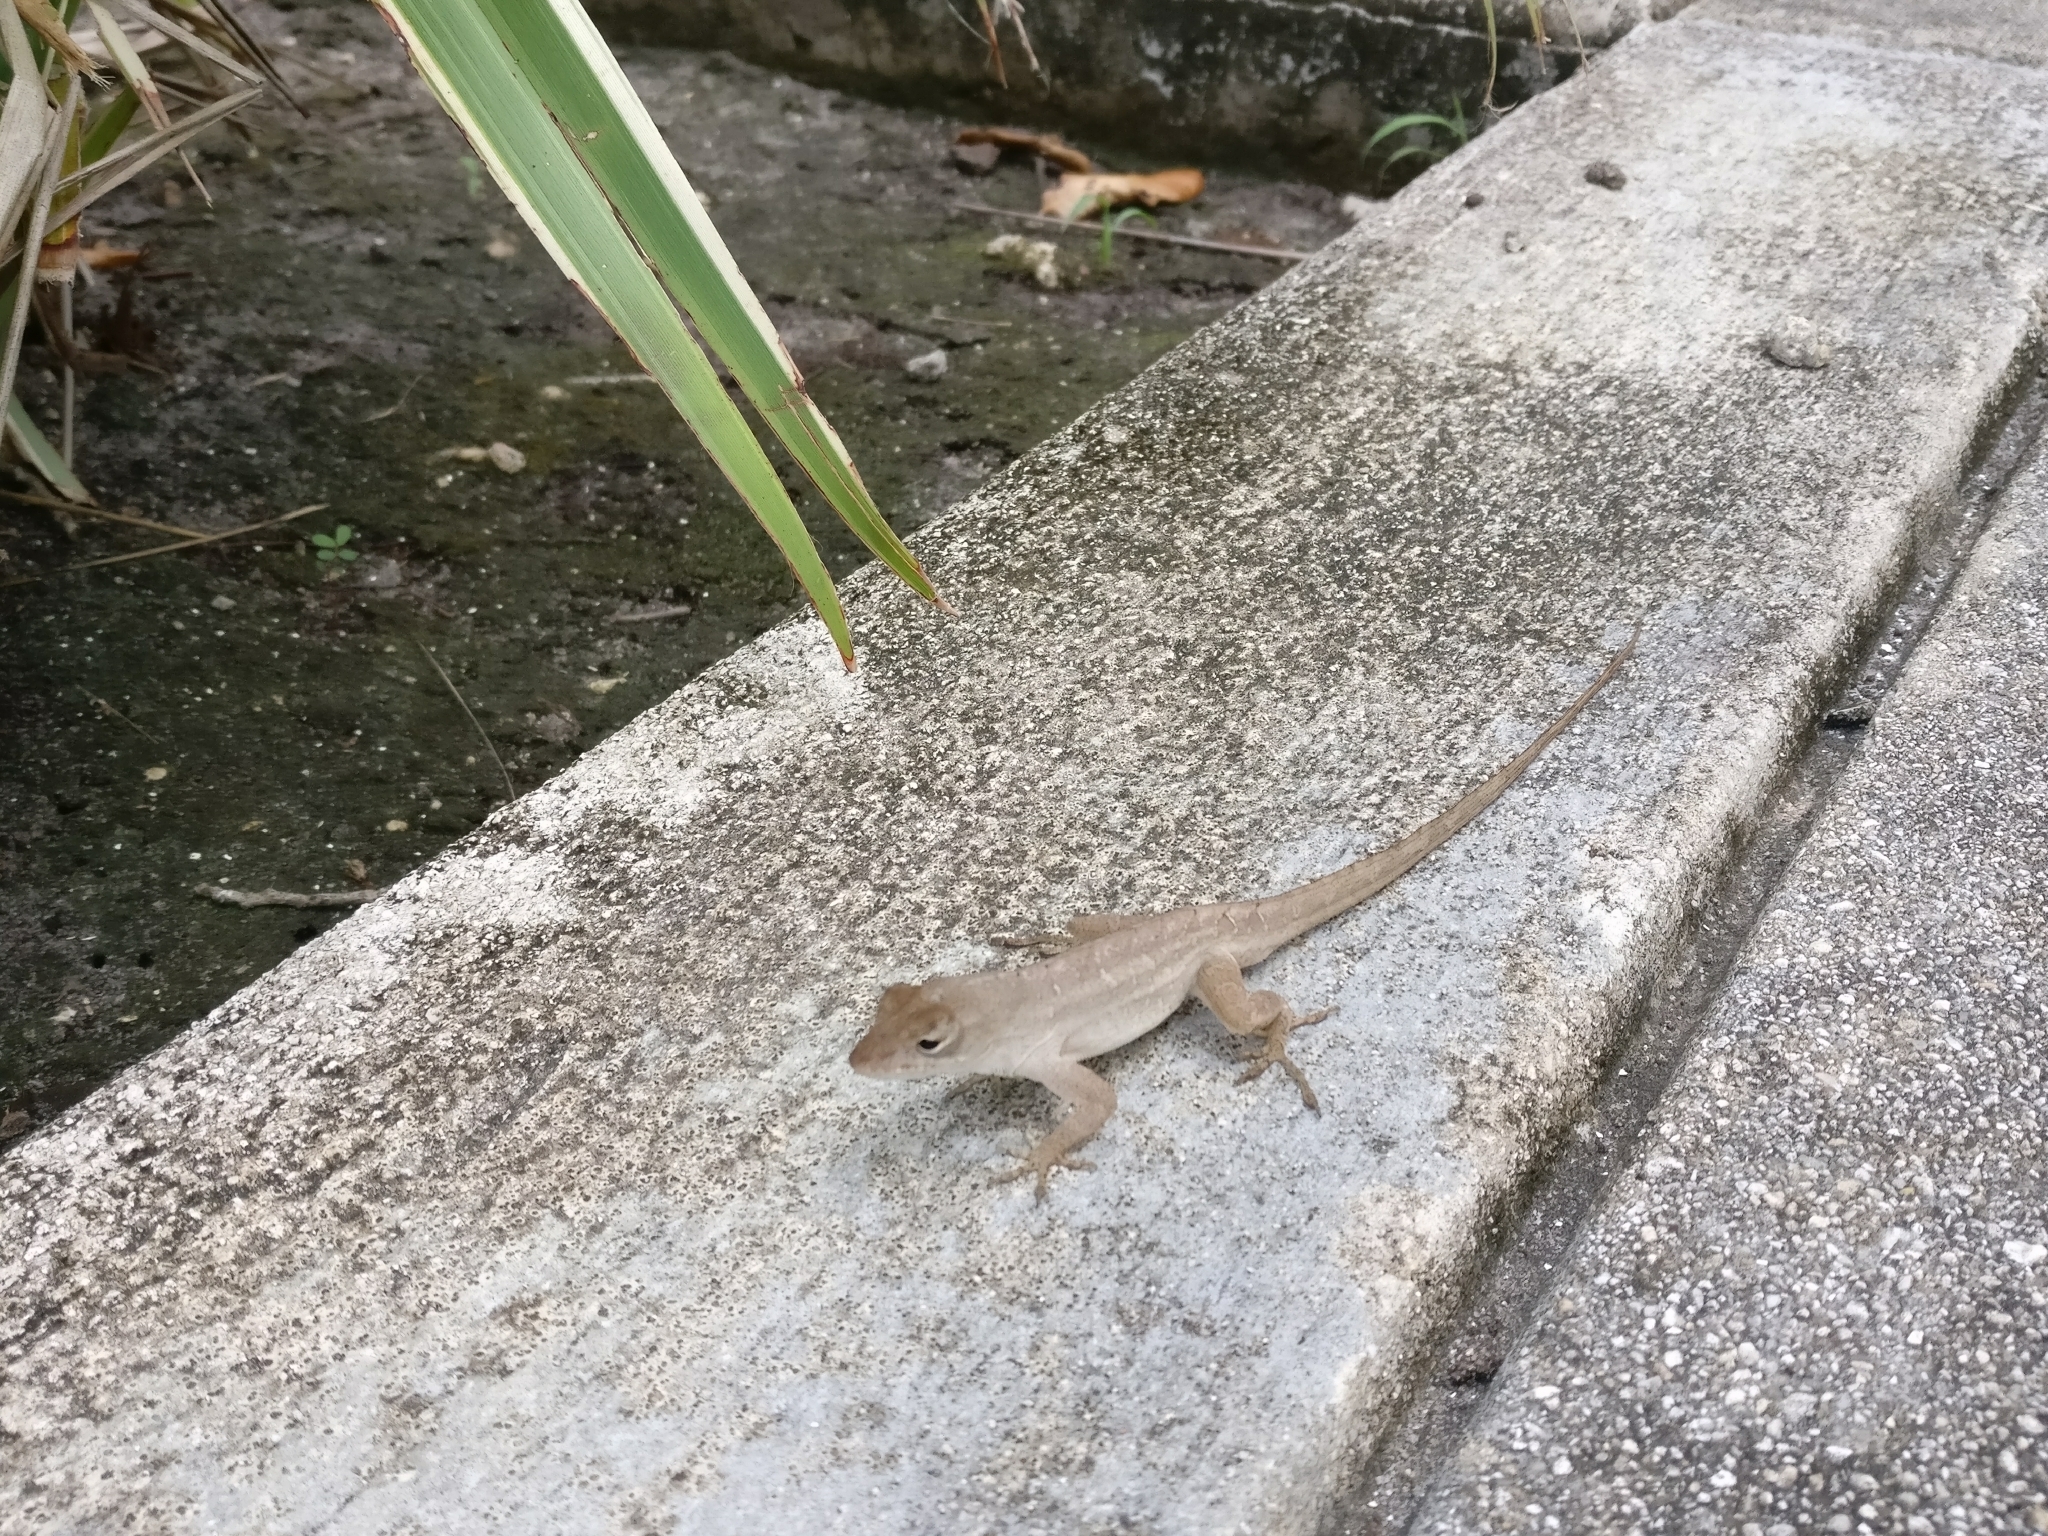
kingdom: Animalia
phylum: Chordata
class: Squamata
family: Dactyloidae
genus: Anolis
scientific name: Anolis sagrei
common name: Brown anole
